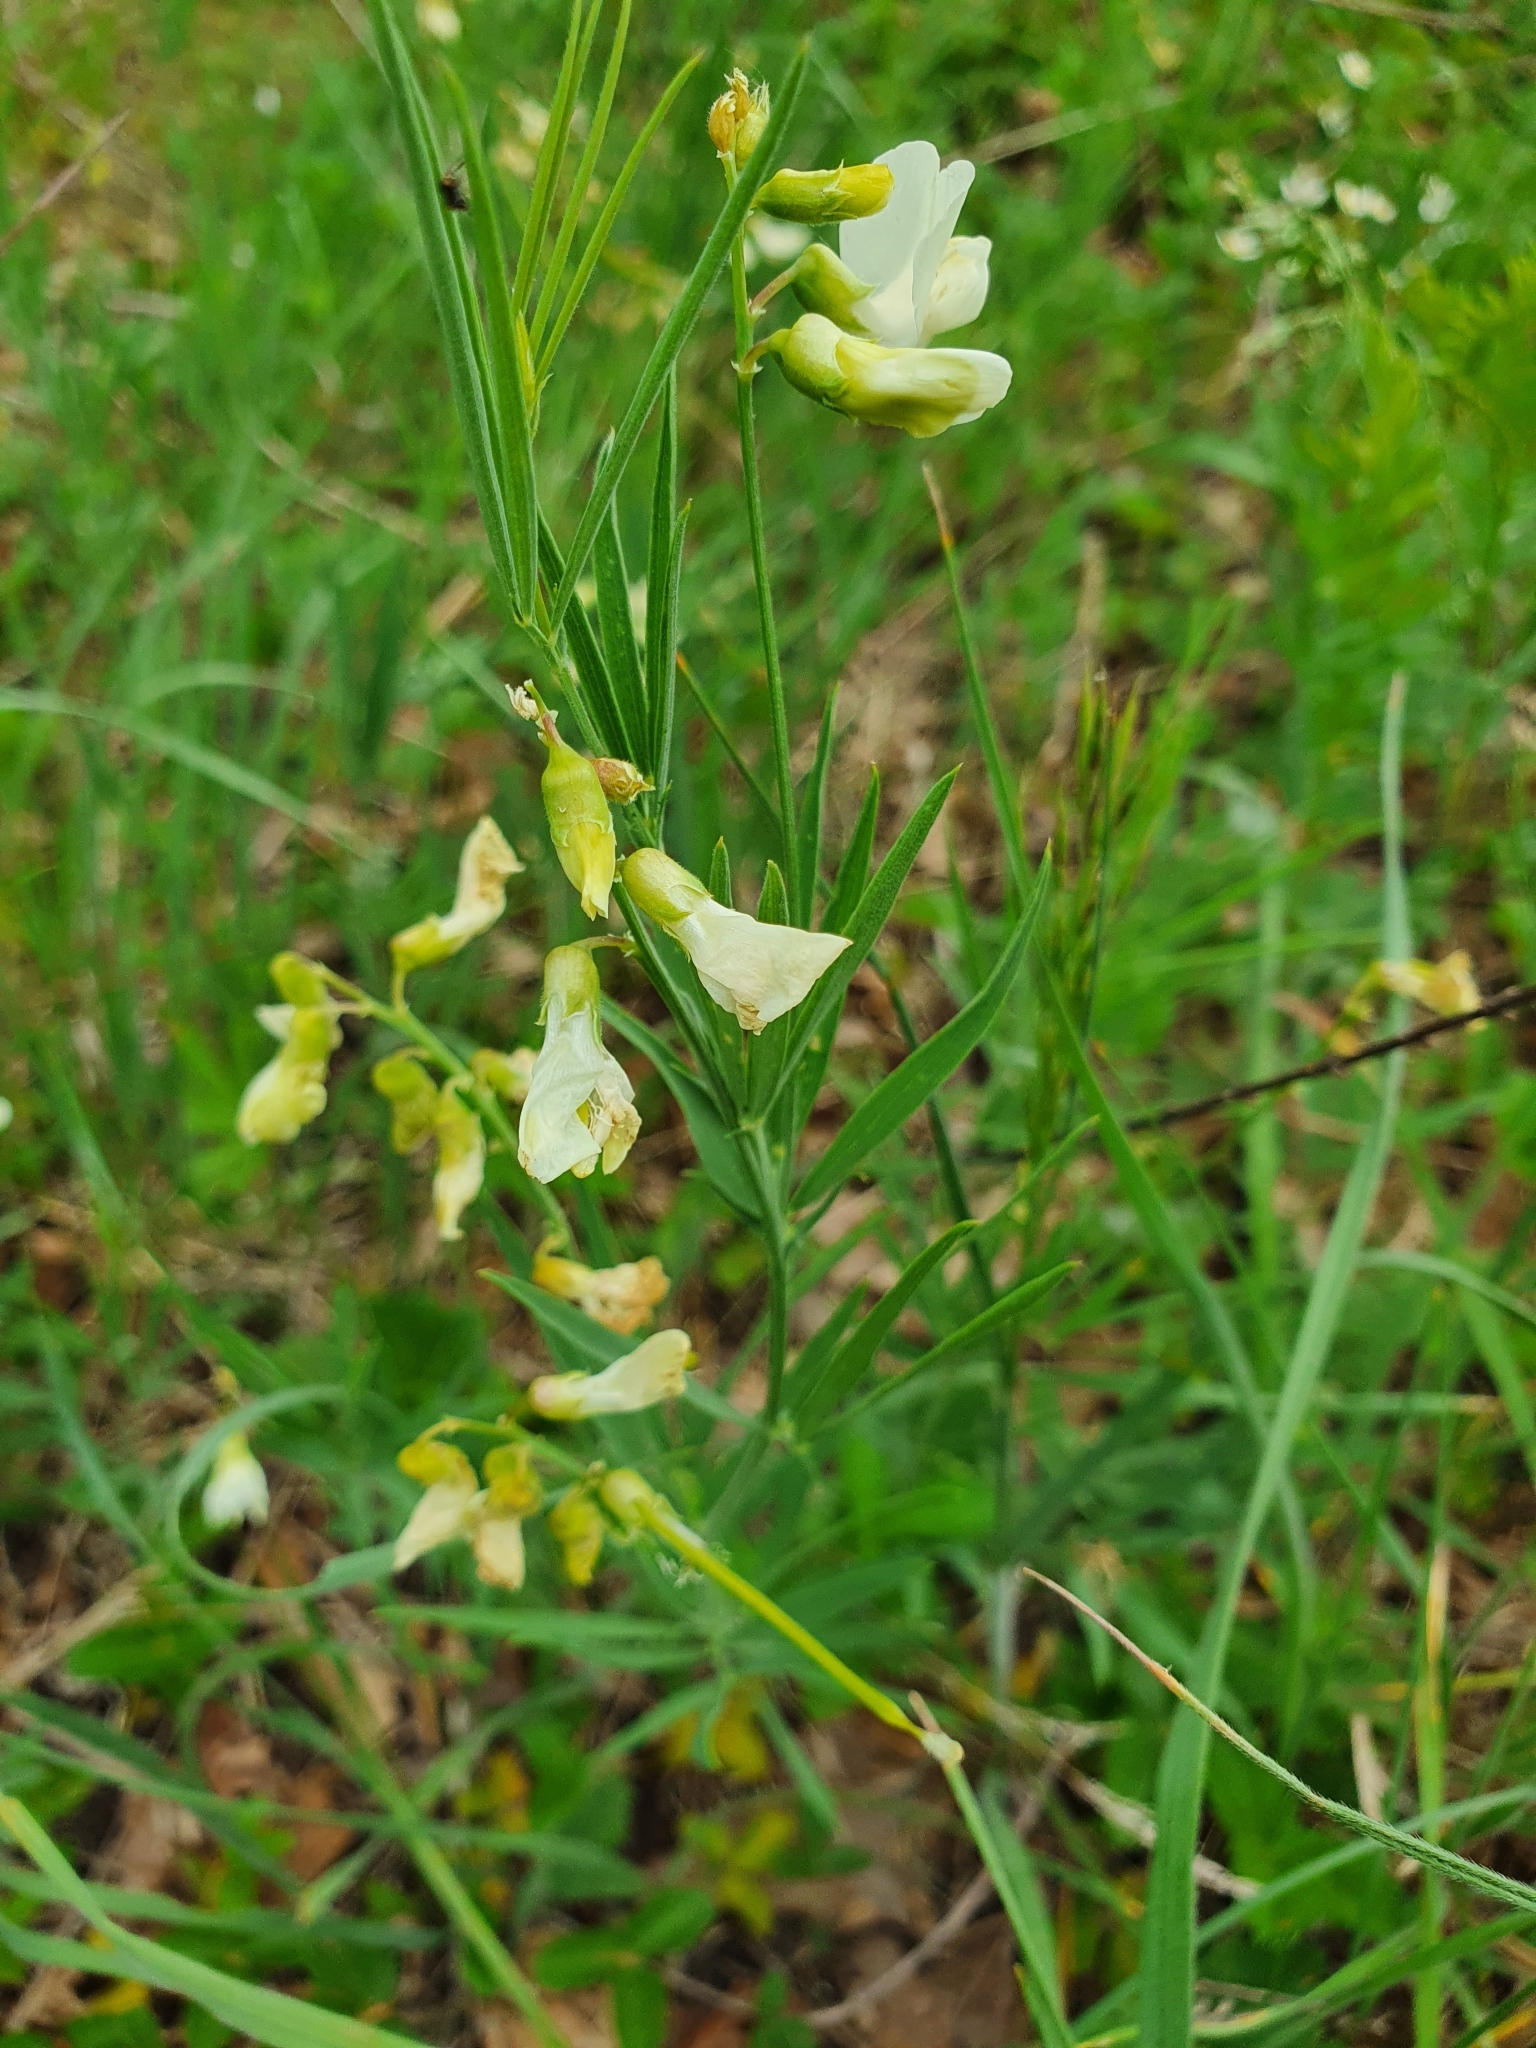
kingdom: Plantae
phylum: Tracheophyta
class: Magnoliopsida
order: Fabales
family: Fabaceae
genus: Lathyrus
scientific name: Lathyrus pallescens
